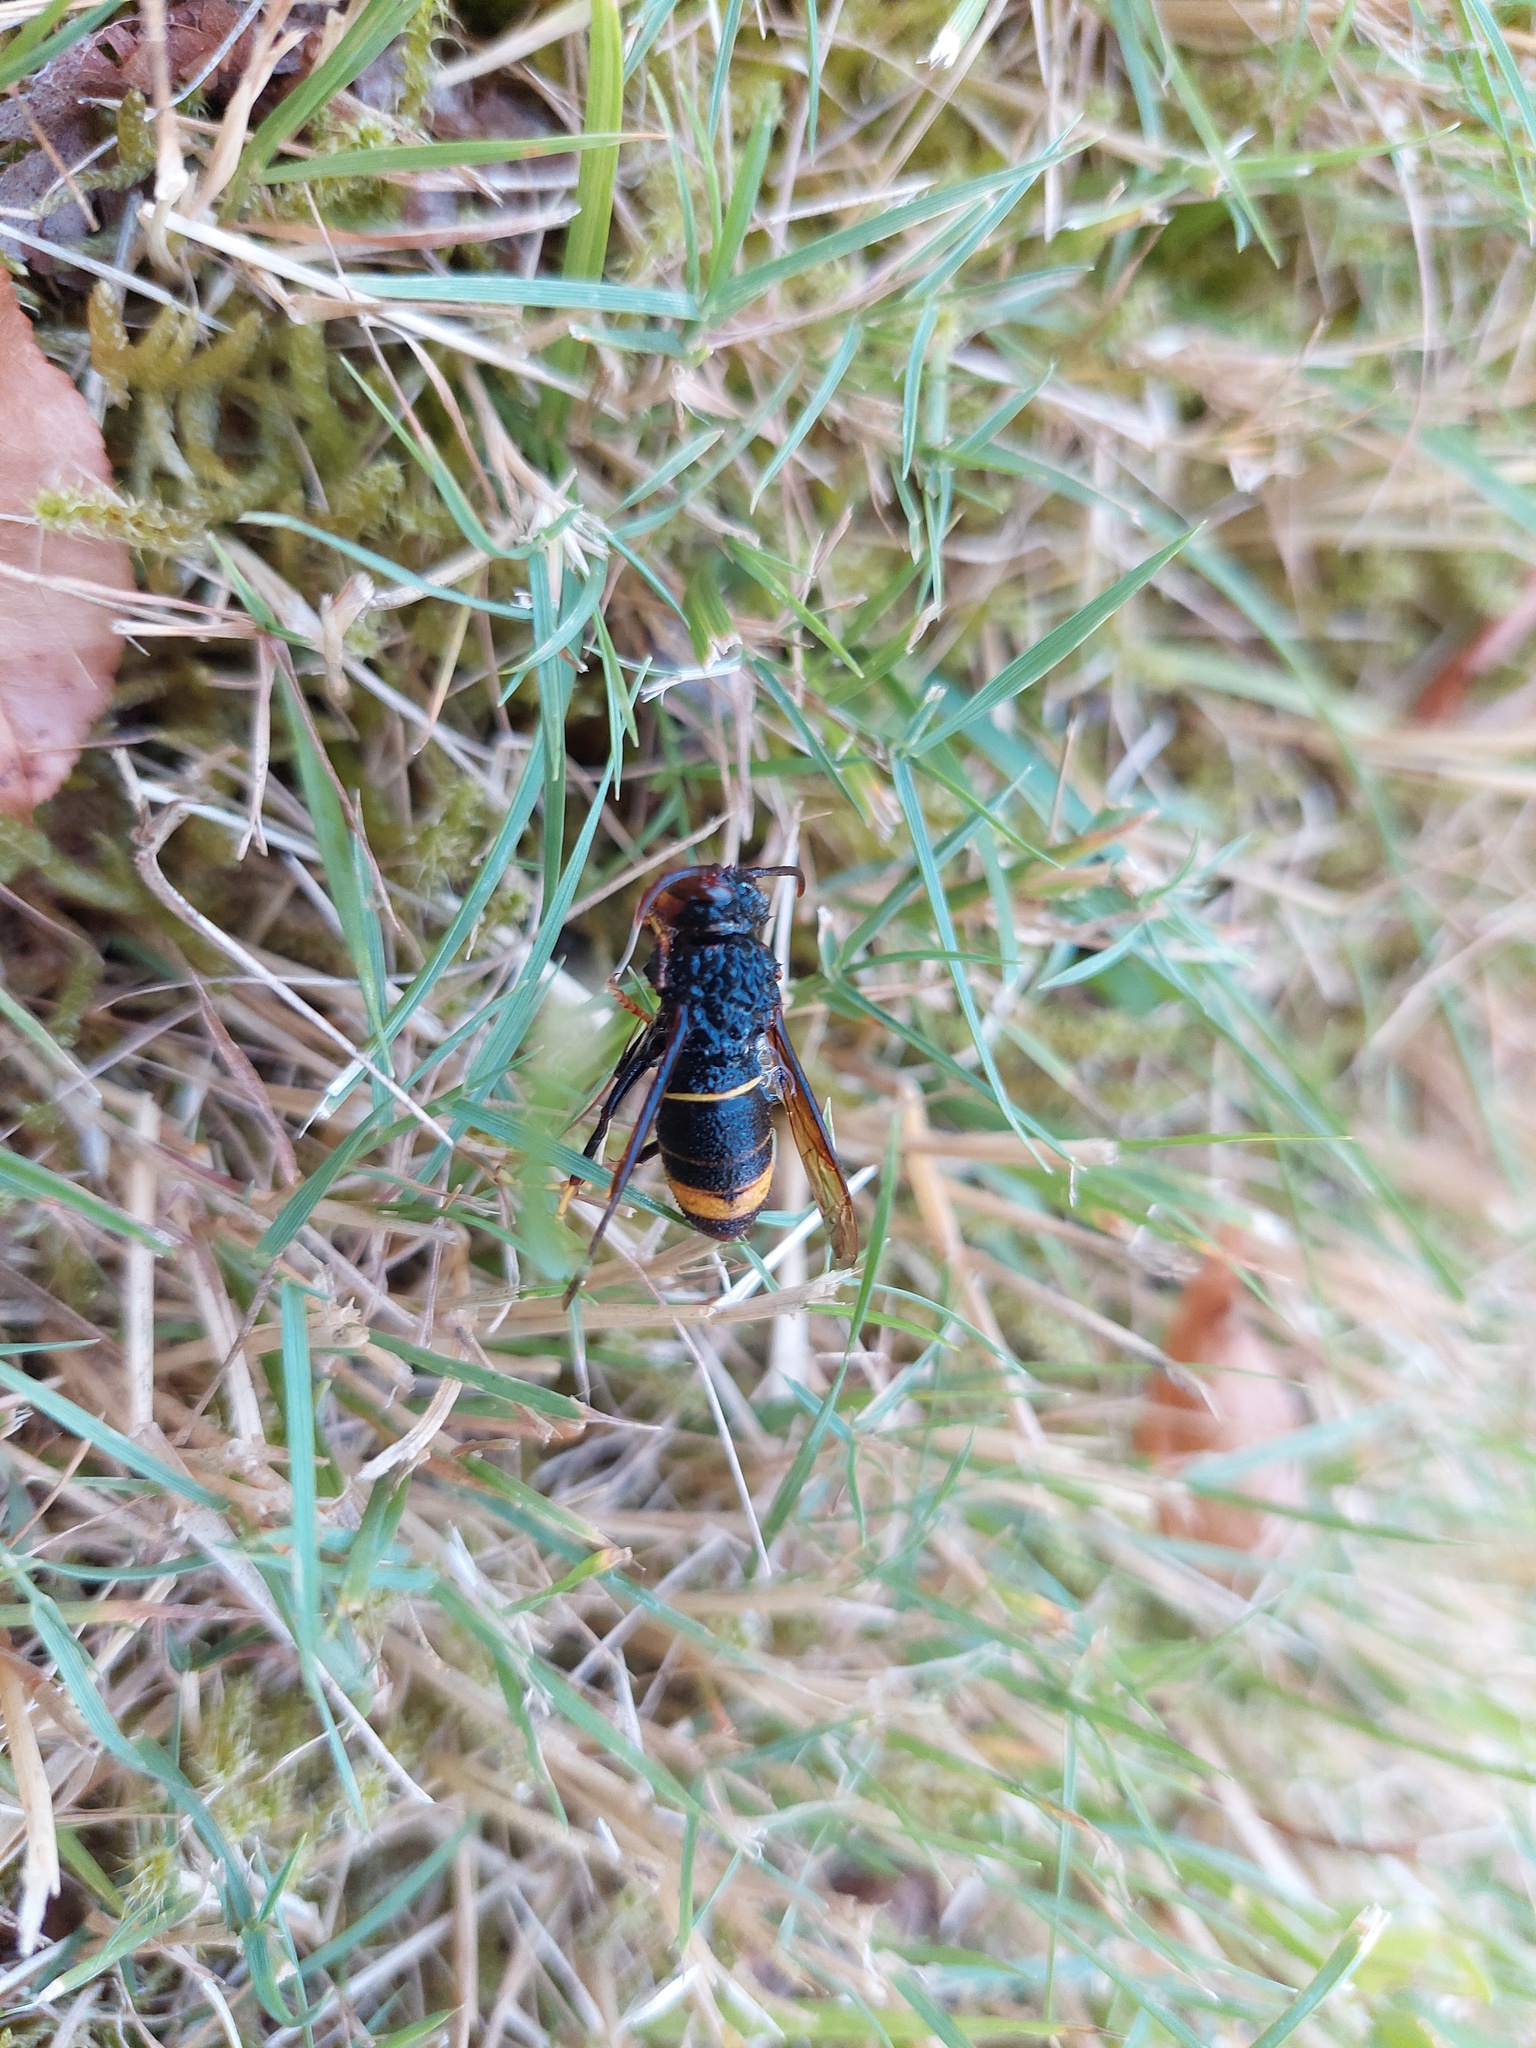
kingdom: Animalia
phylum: Arthropoda
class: Insecta
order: Hymenoptera
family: Vespidae
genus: Vespa
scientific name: Vespa velutina
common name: Asian hornet
